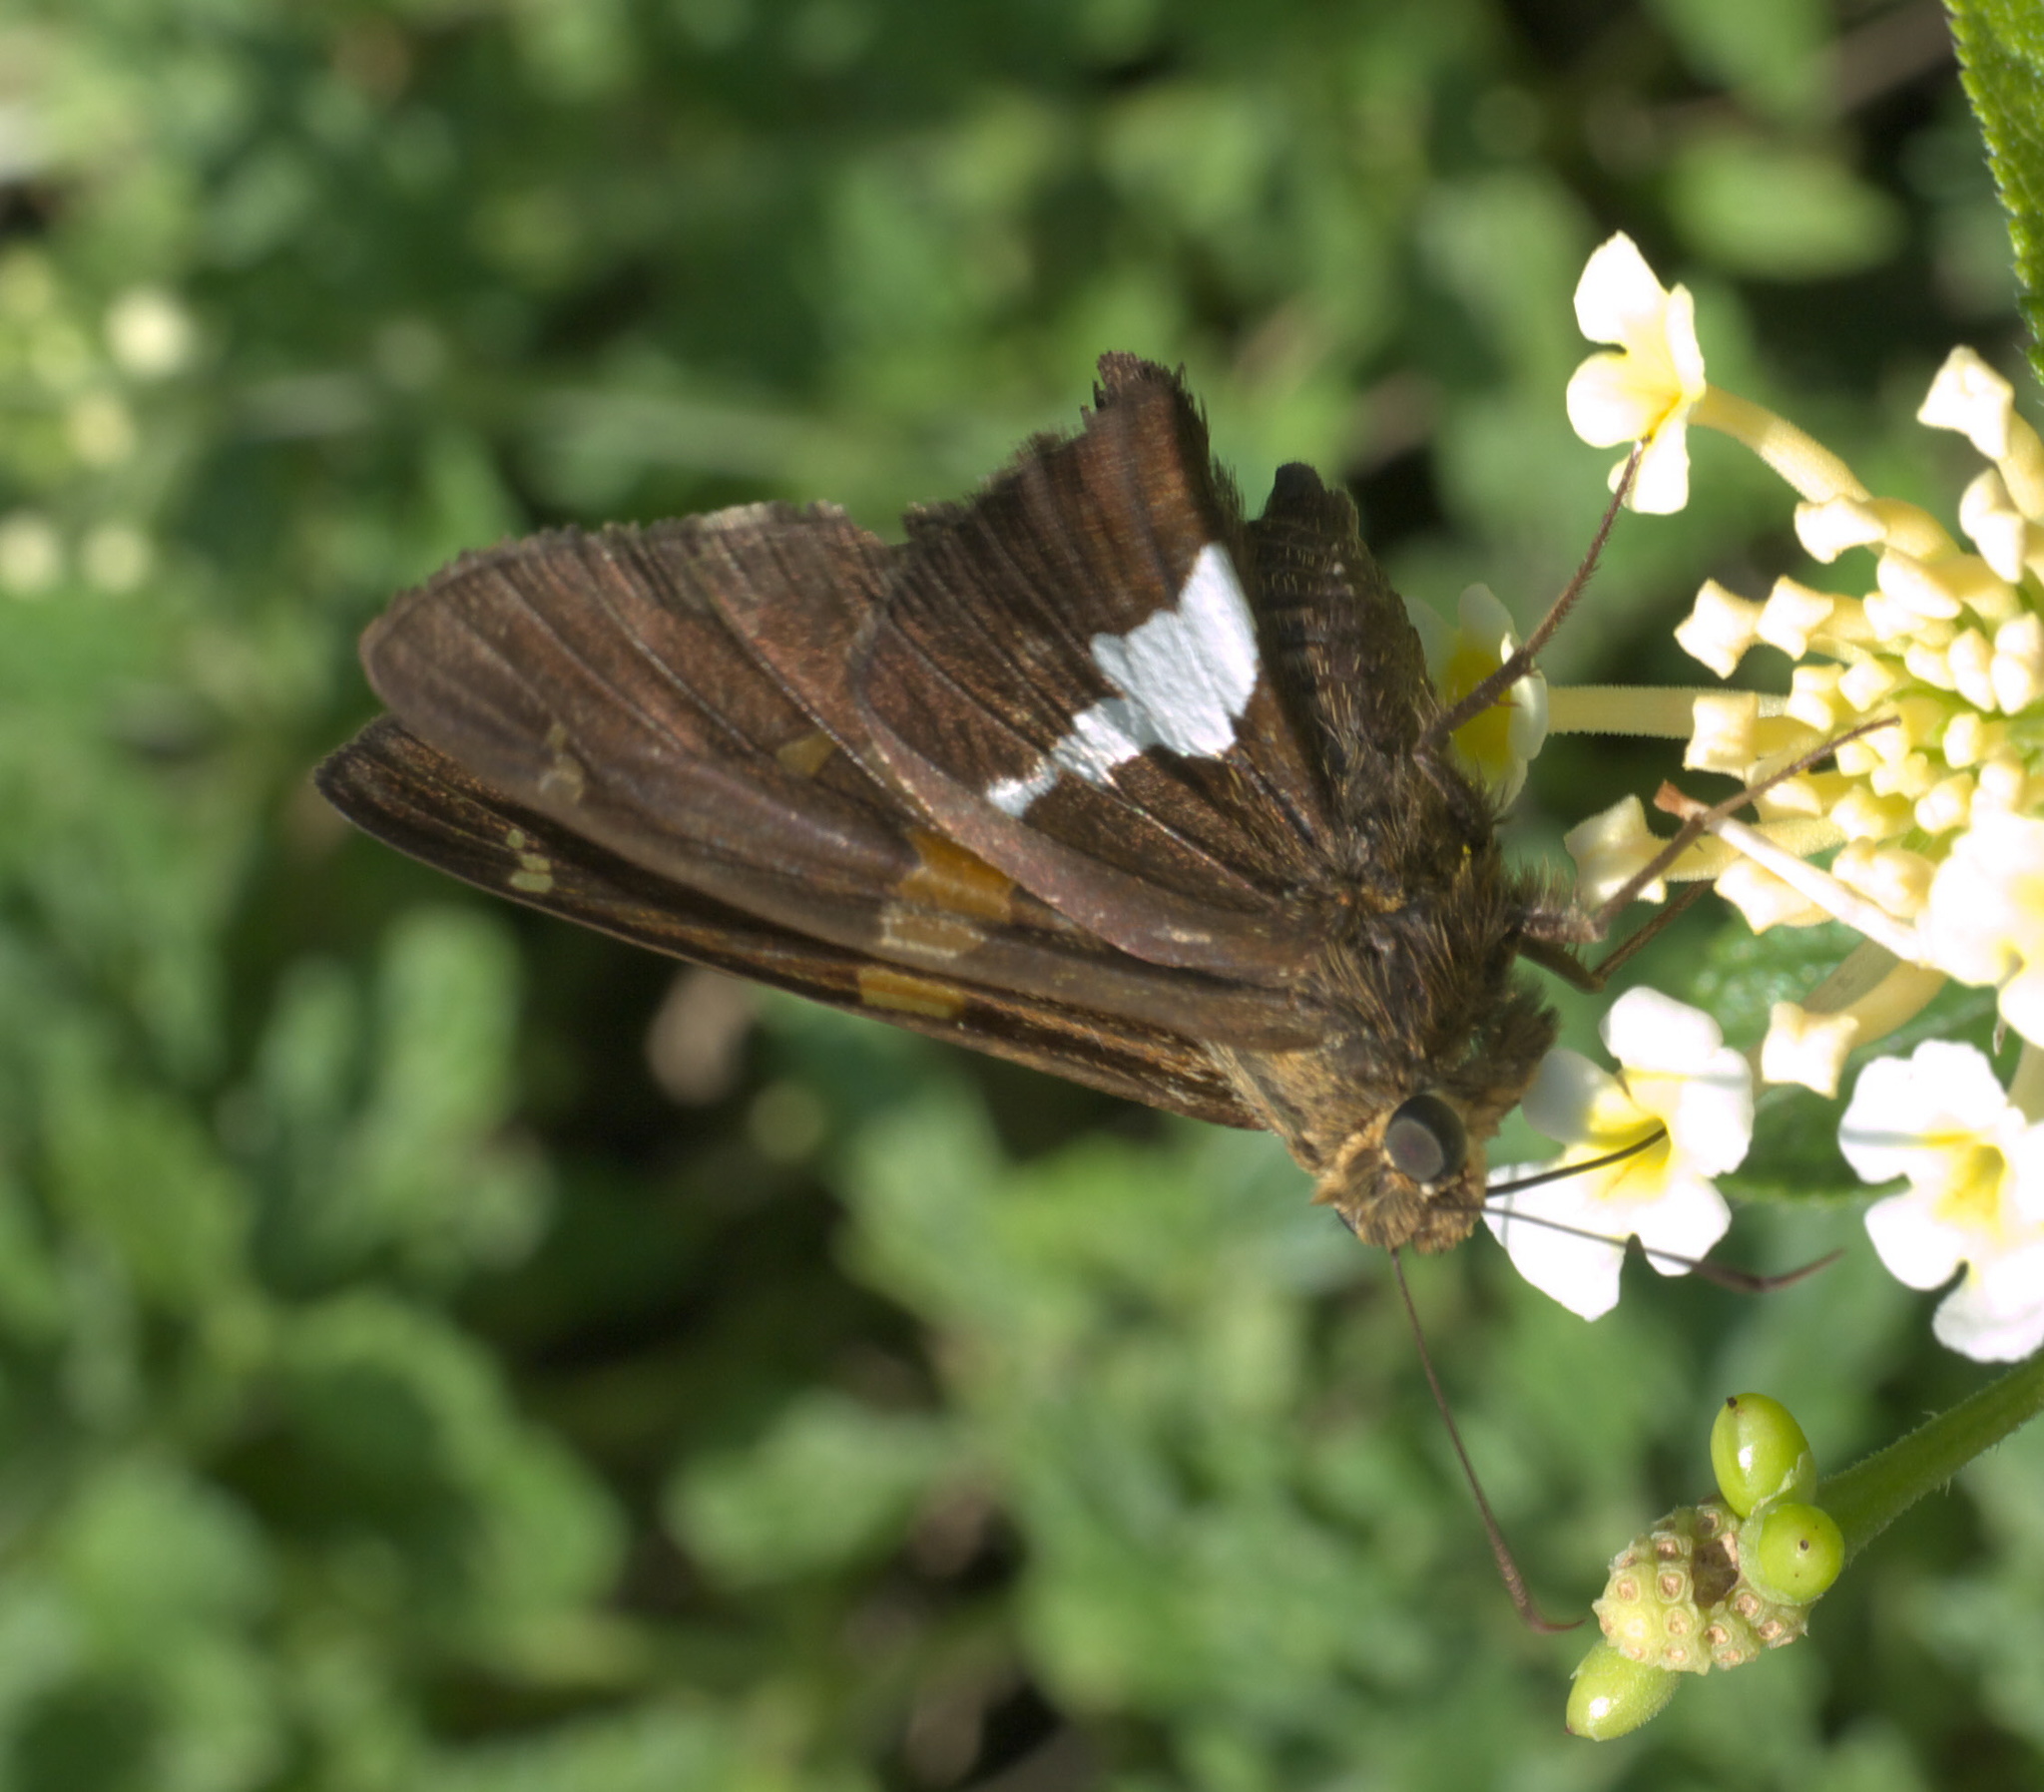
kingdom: Animalia
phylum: Arthropoda
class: Insecta
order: Lepidoptera
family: Hesperiidae
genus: Epargyreus
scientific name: Epargyreus clarus
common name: Silver-spotted skipper
